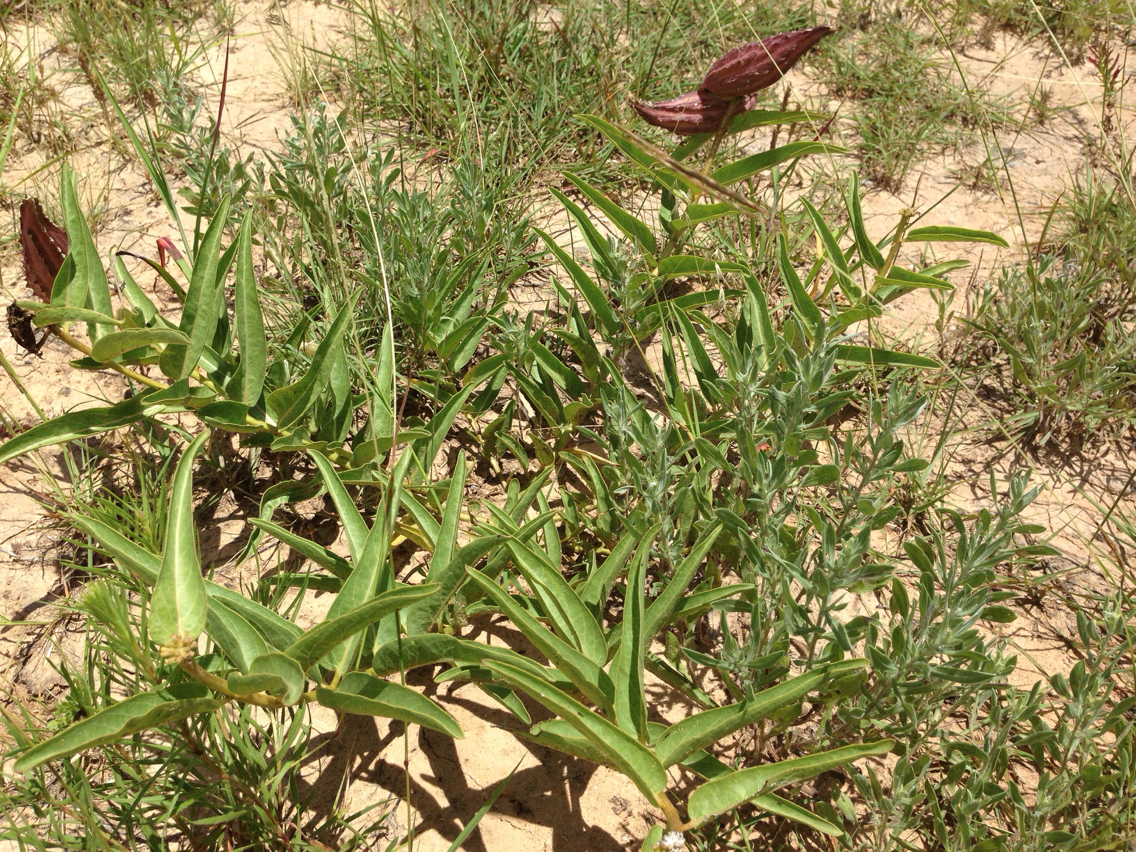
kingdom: Plantae
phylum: Tracheophyta
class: Magnoliopsida
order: Gentianales
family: Apocynaceae
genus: Asclepias
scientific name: Asclepias asperula
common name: Antelope horns
